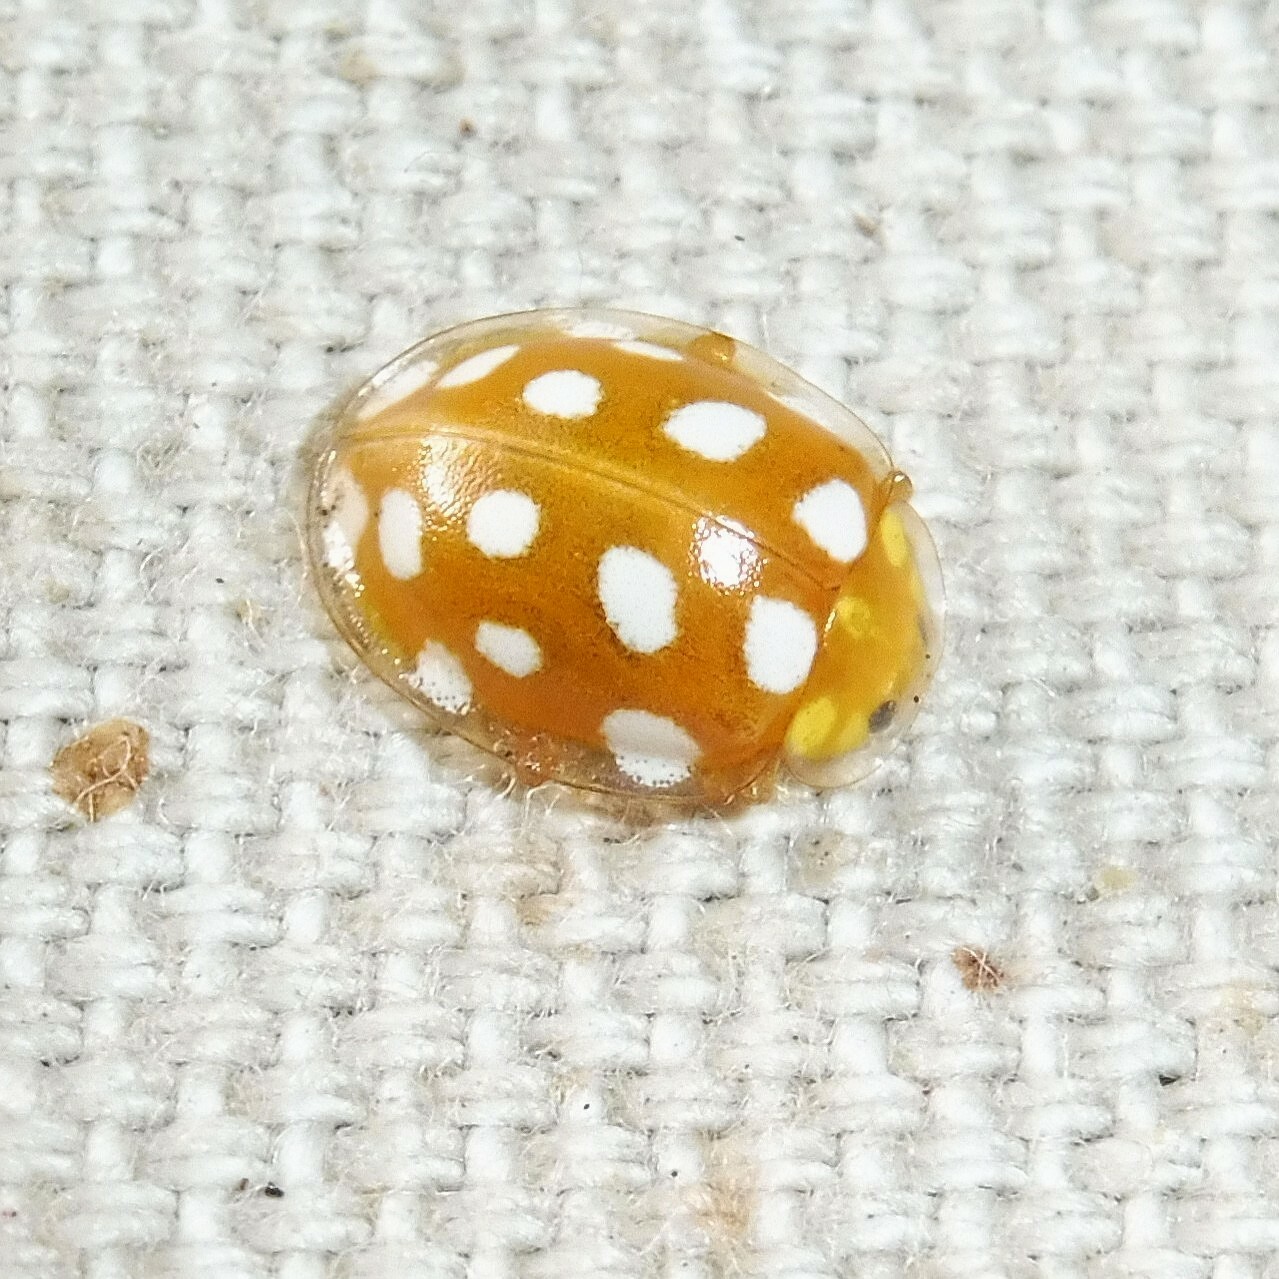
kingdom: Animalia
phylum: Arthropoda
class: Insecta
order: Coleoptera
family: Coccinellidae
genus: Halyzia
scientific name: Halyzia sedecimguttata
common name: Orange ladybird
